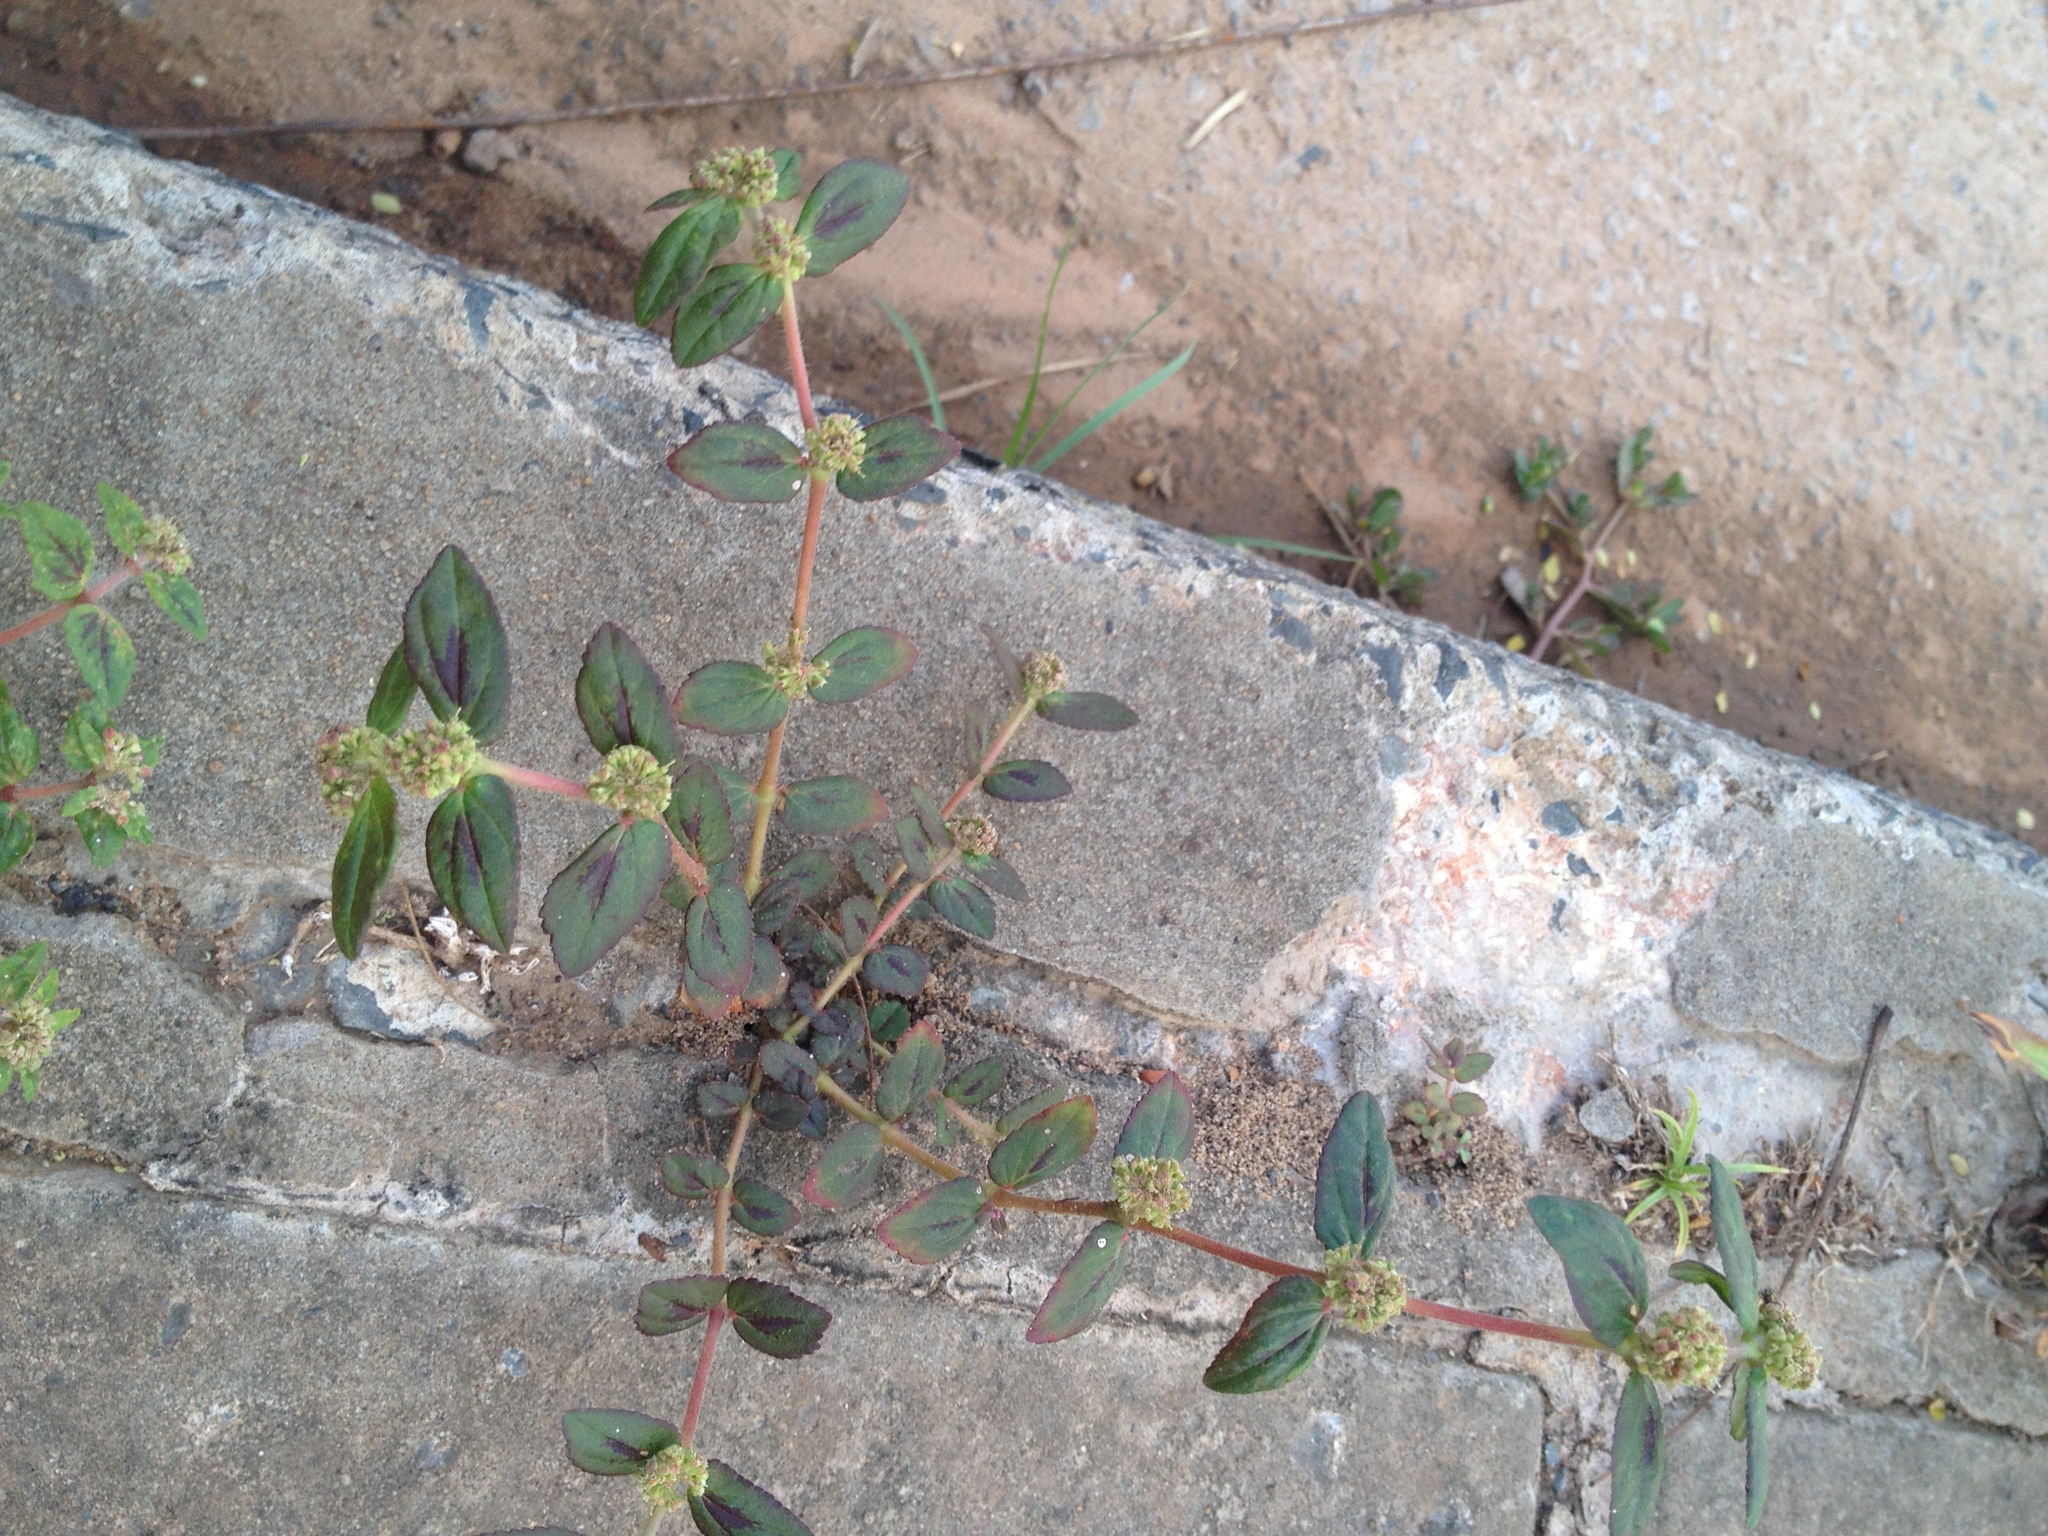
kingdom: Plantae
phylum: Tracheophyta
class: Magnoliopsida
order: Malpighiales
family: Euphorbiaceae
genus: Euphorbia
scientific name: Euphorbia hirta
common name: Pillpod sandmat
